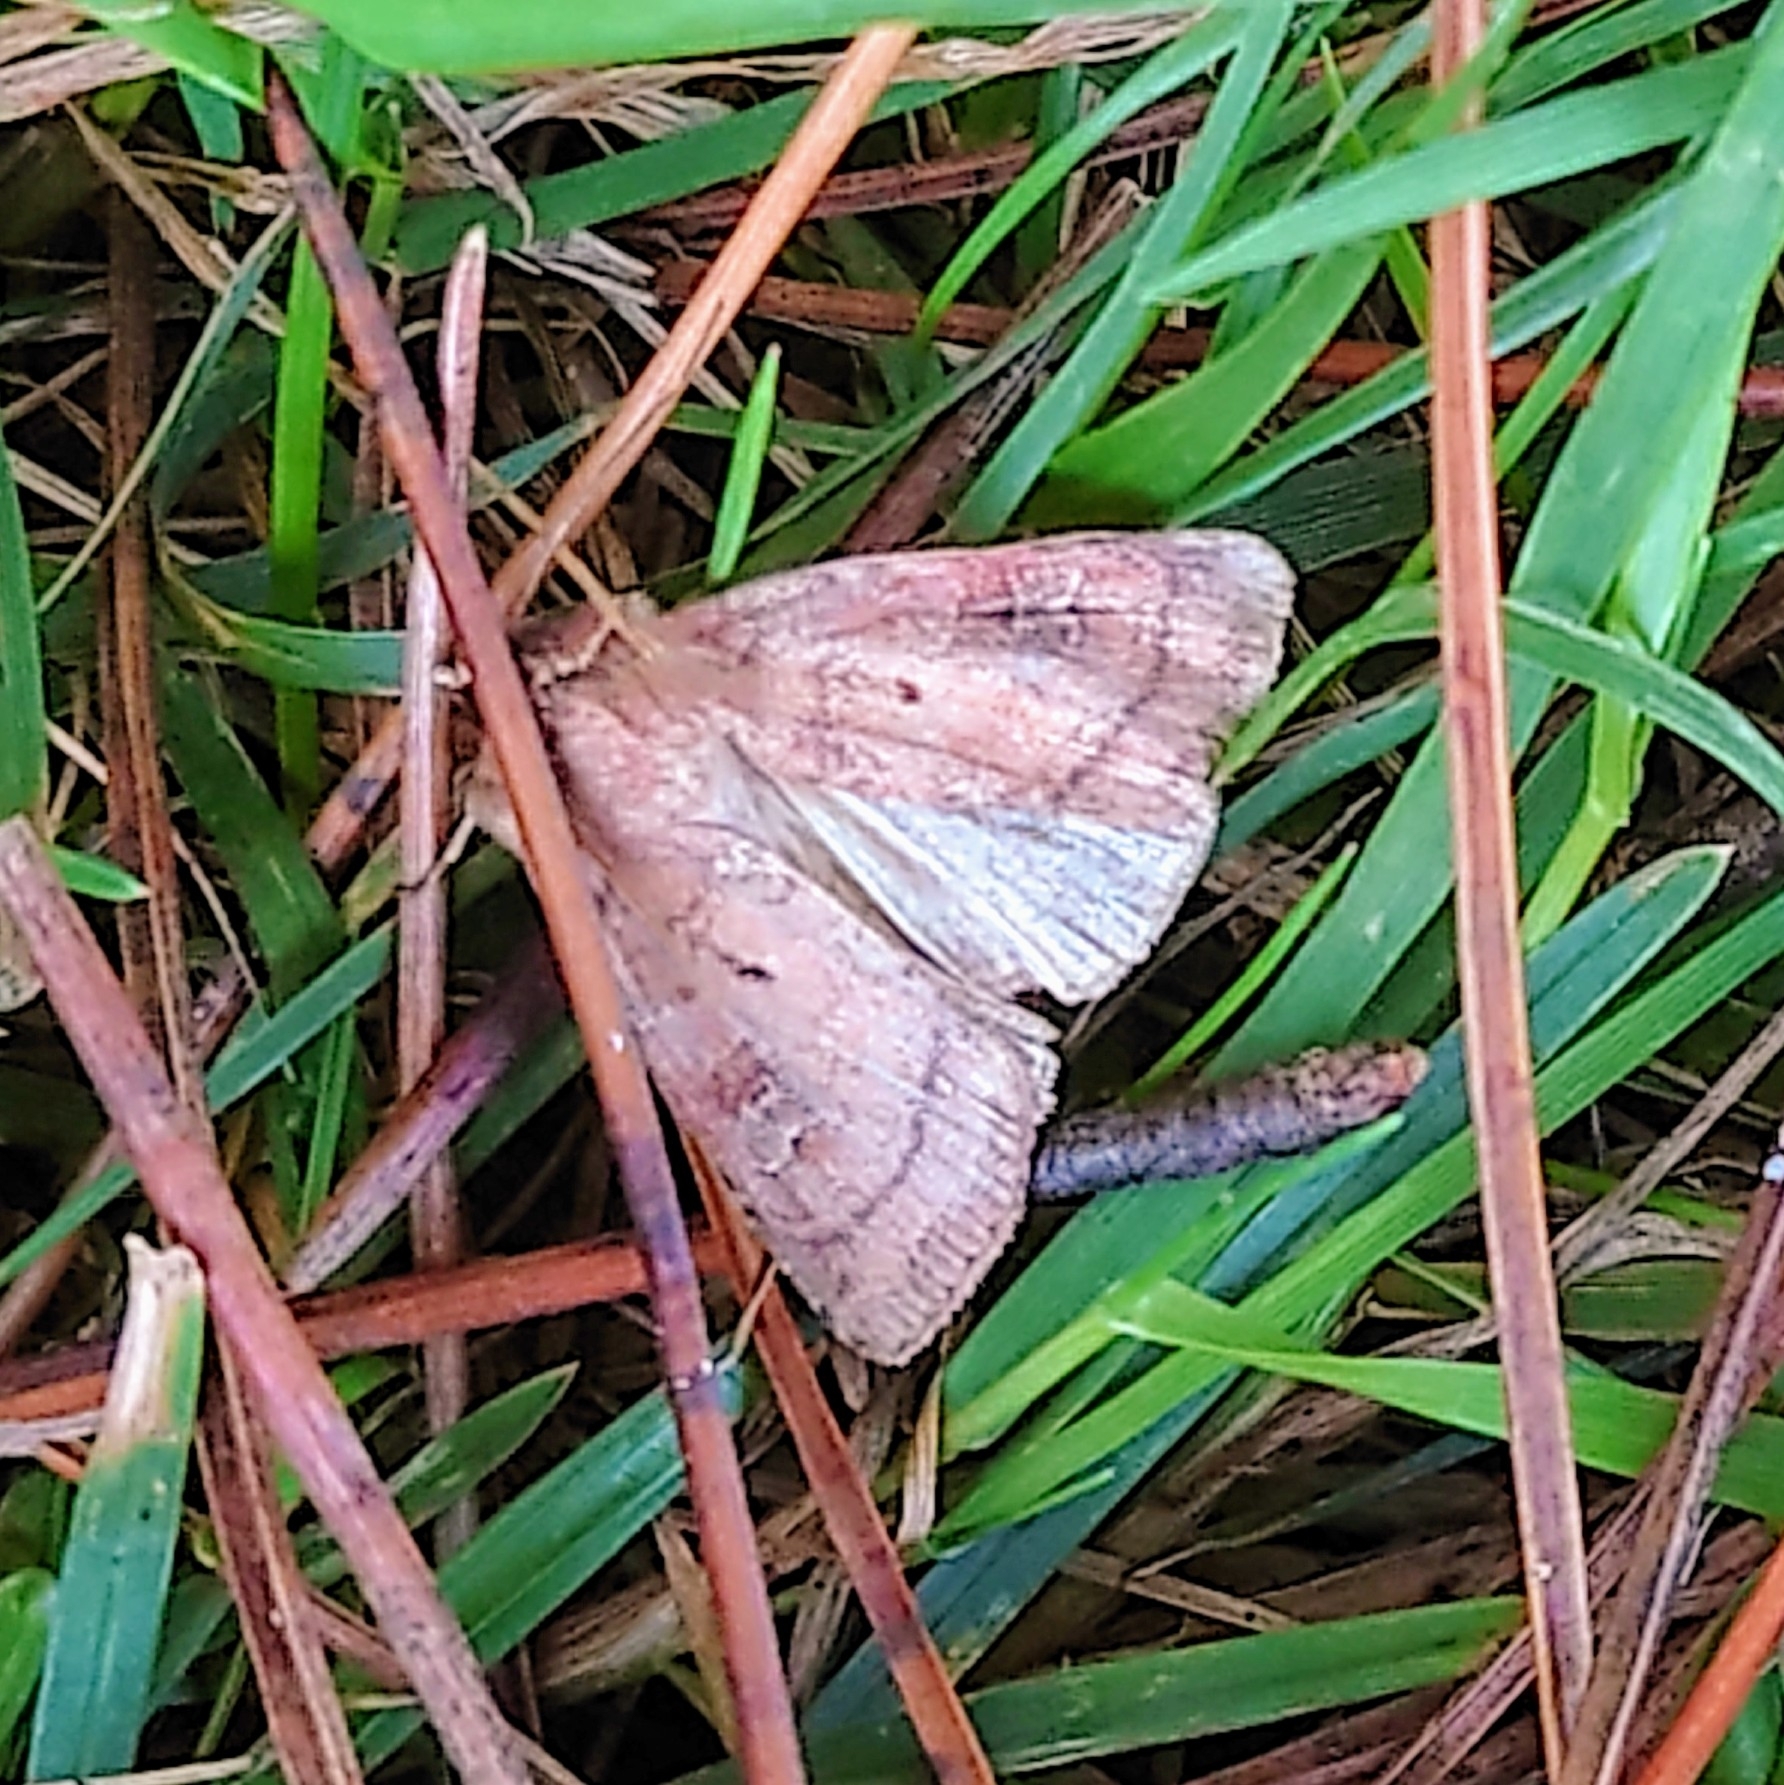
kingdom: Animalia
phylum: Arthropoda
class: Insecta
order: Lepidoptera
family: Noctuidae
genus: Diarsia
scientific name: Diarsia rubi
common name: Small square-spot
